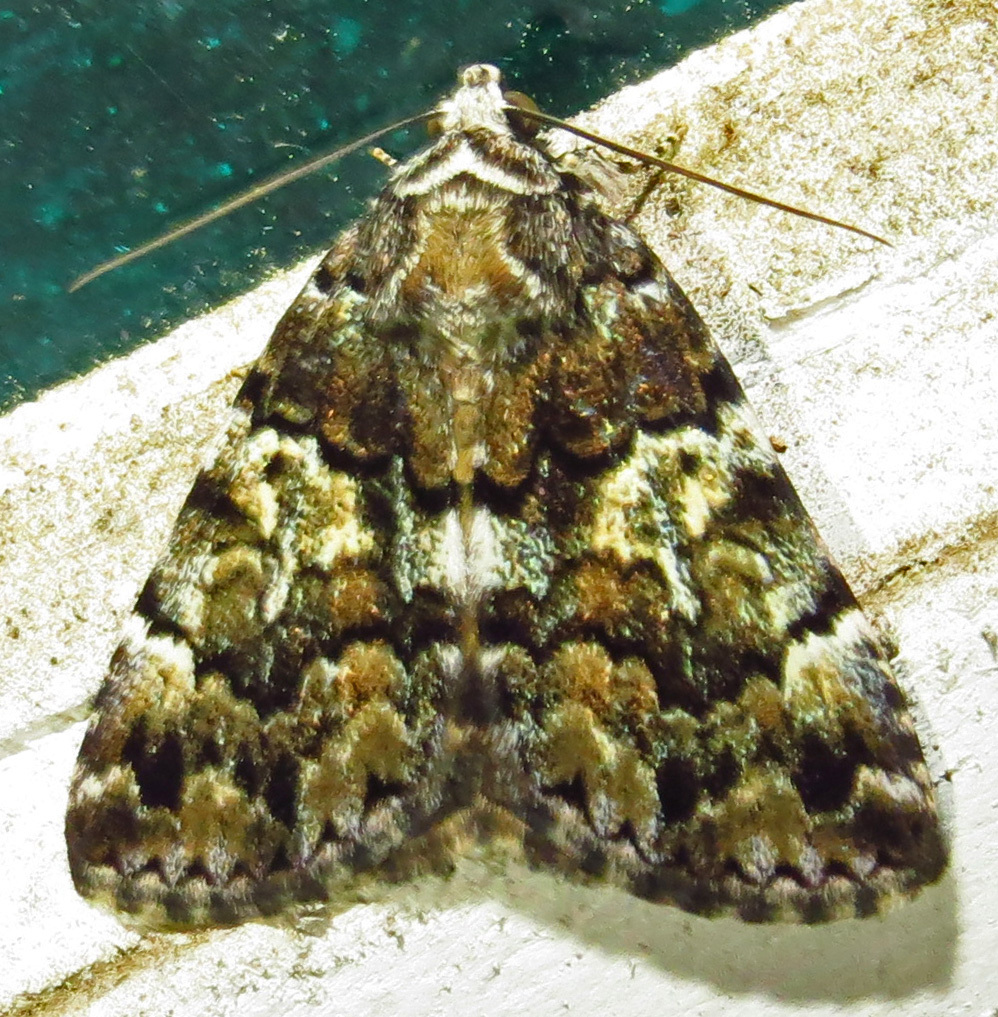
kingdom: Animalia
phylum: Arthropoda
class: Insecta
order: Lepidoptera
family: Erebidae
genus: Allotria
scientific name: Allotria elonympha
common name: False underwing
